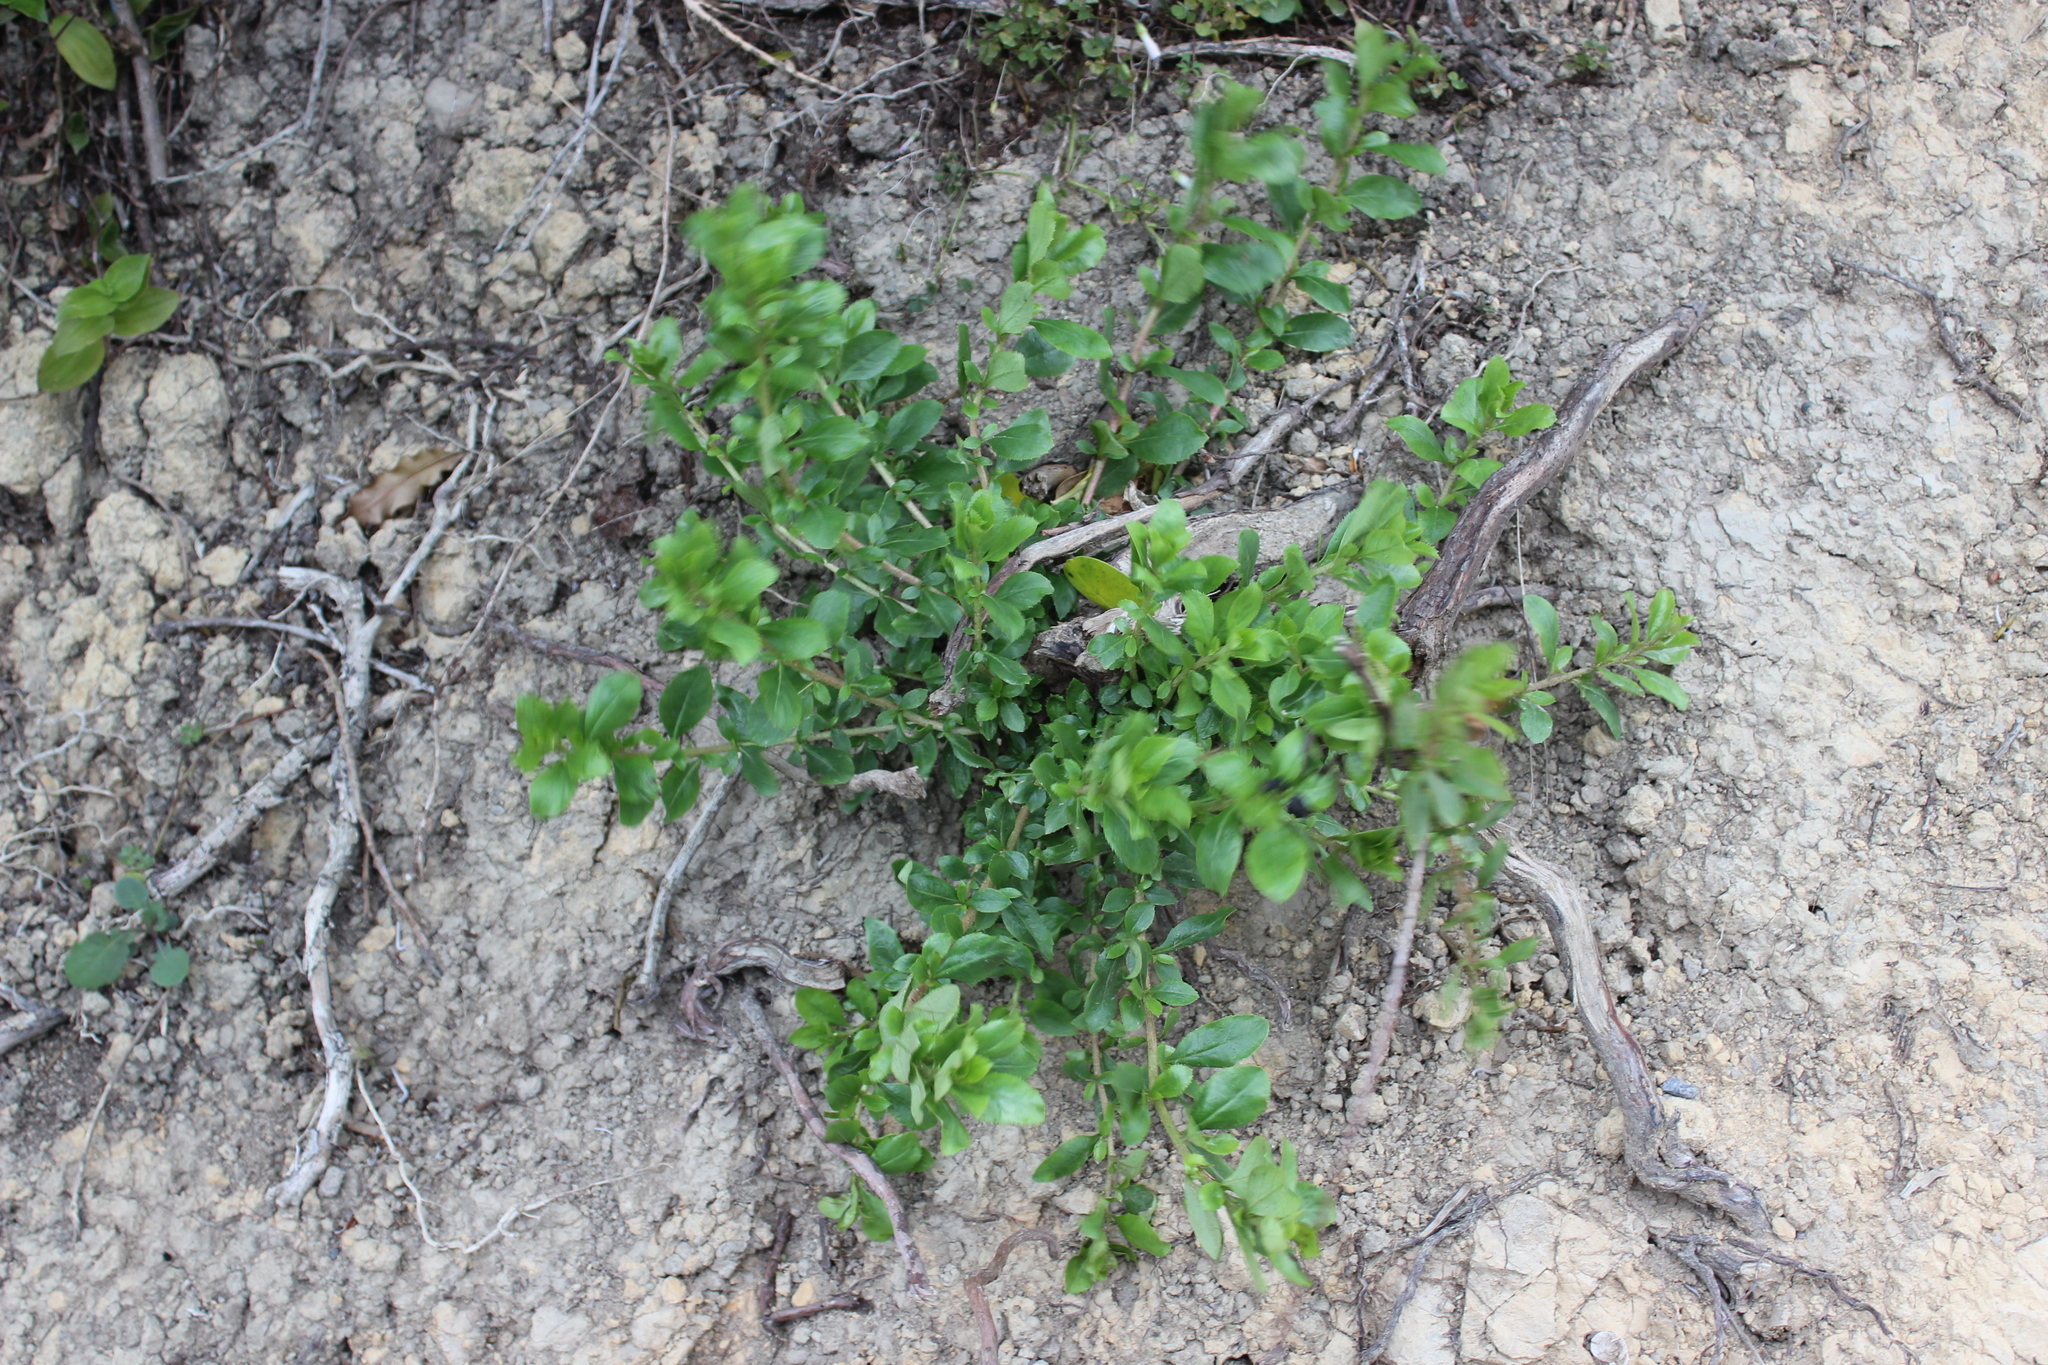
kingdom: Plantae
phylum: Tracheophyta
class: Magnoliopsida
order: Escalloniales
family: Escalloniaceae
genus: Escallonia
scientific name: Escallonia rubra
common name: Redclaws
